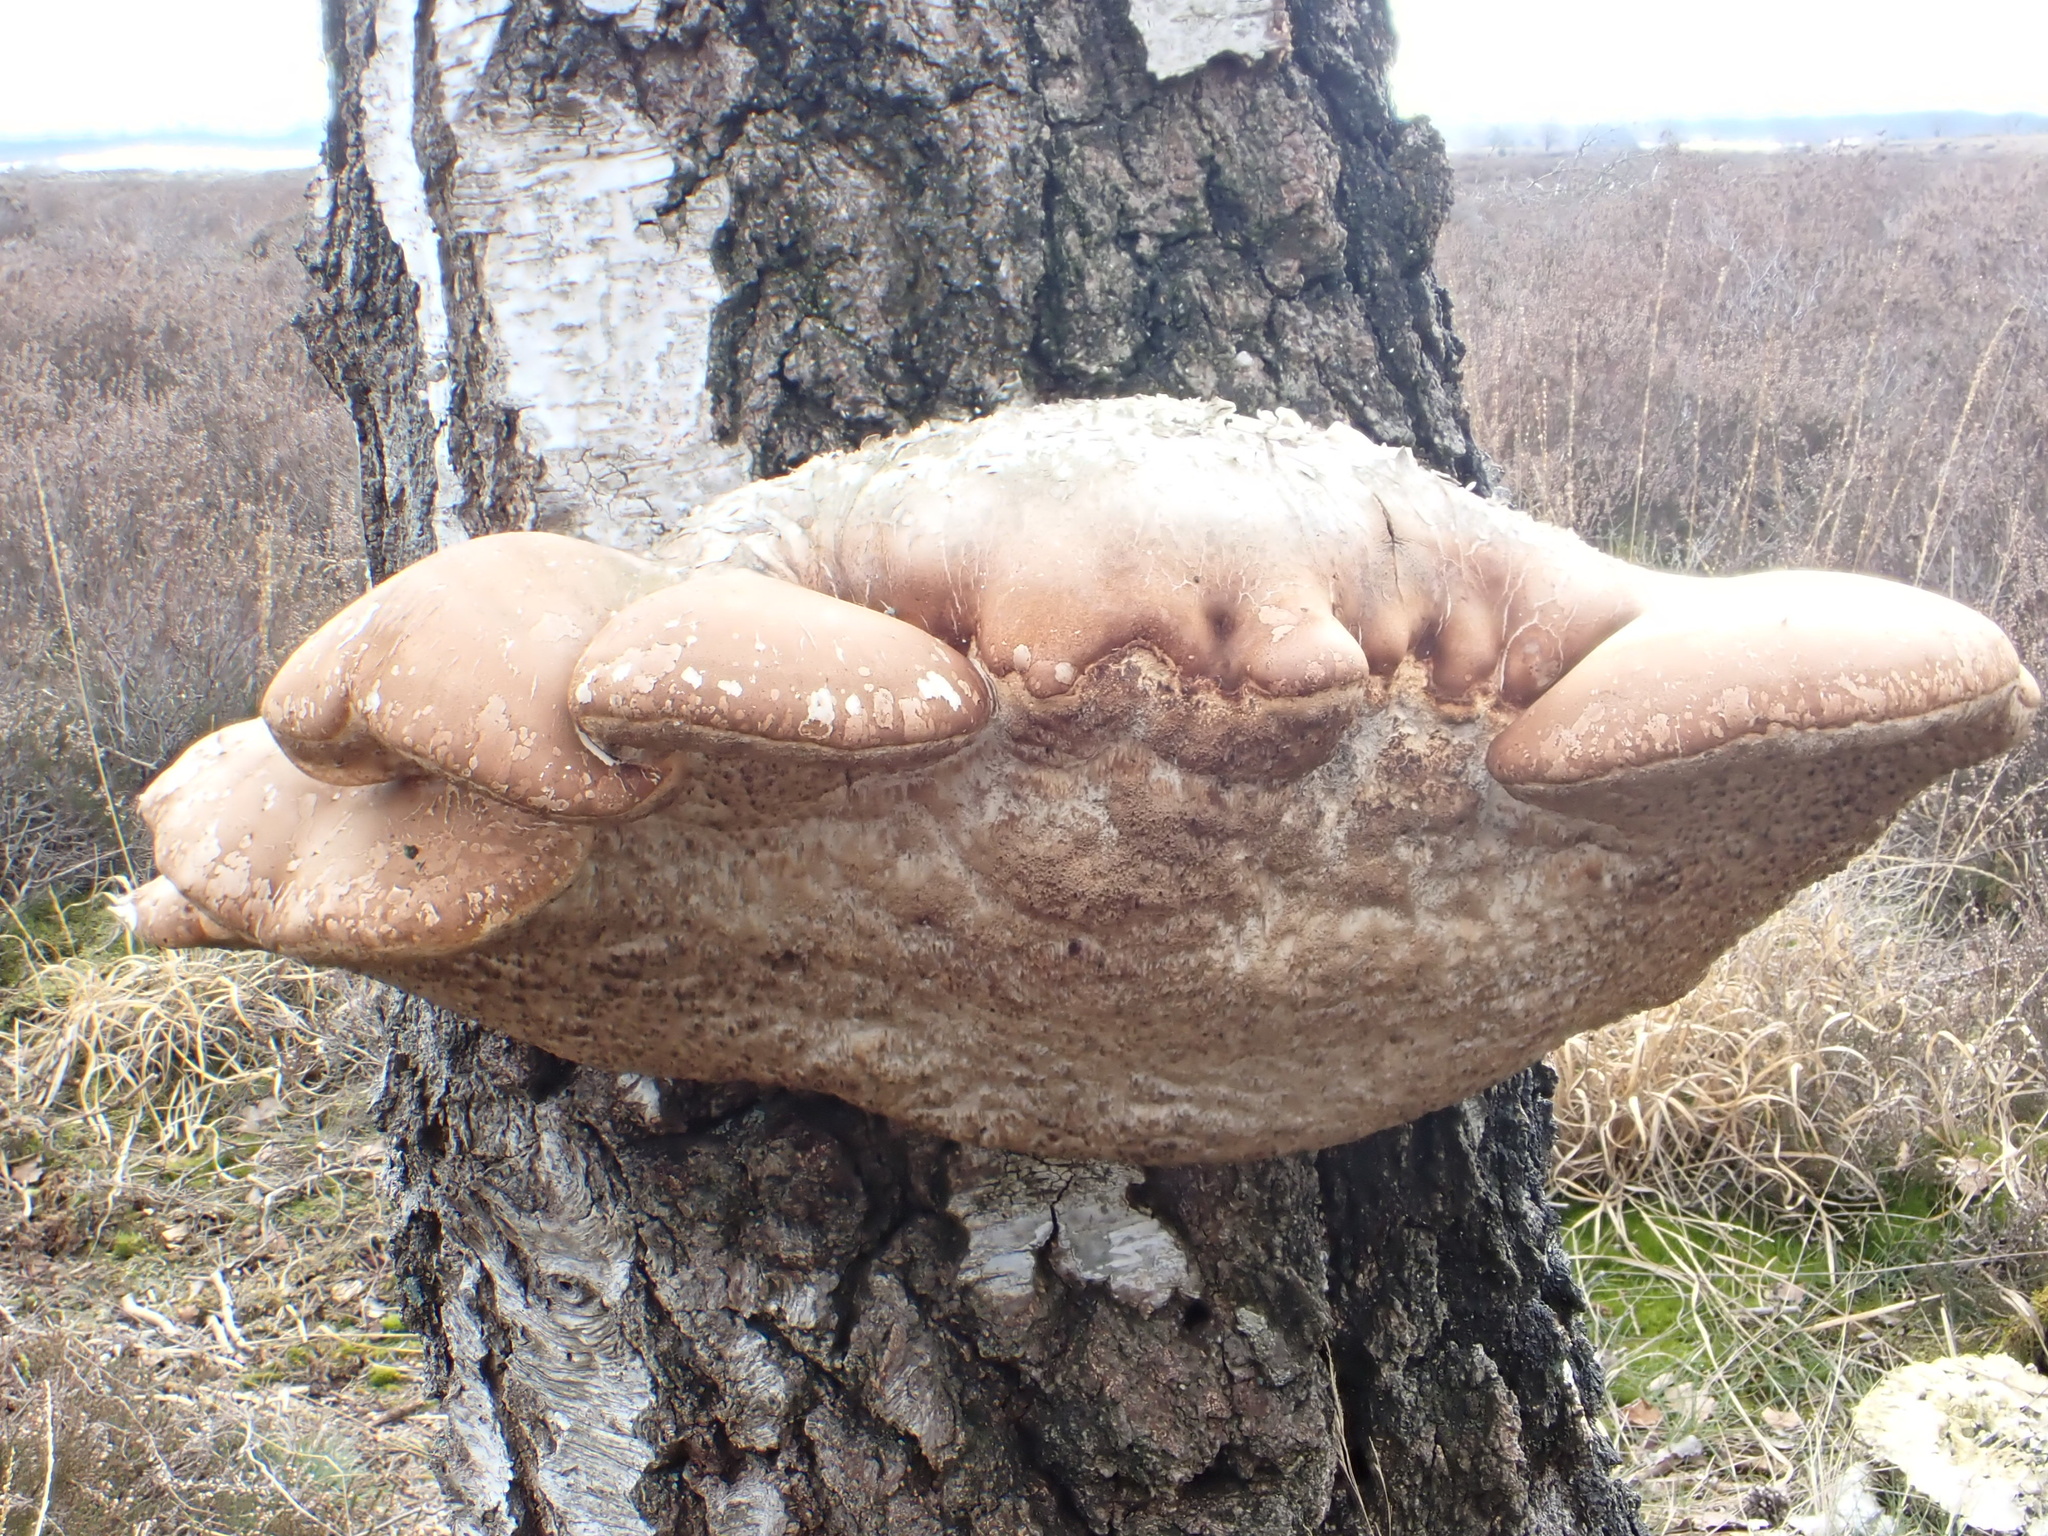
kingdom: Fungi
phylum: Basidiomycota
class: Agaricomycetes
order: Polyporales
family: Fomitopsidaceae
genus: Fomitopsis
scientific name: Fomitopsis betulina
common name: Birch polypore
